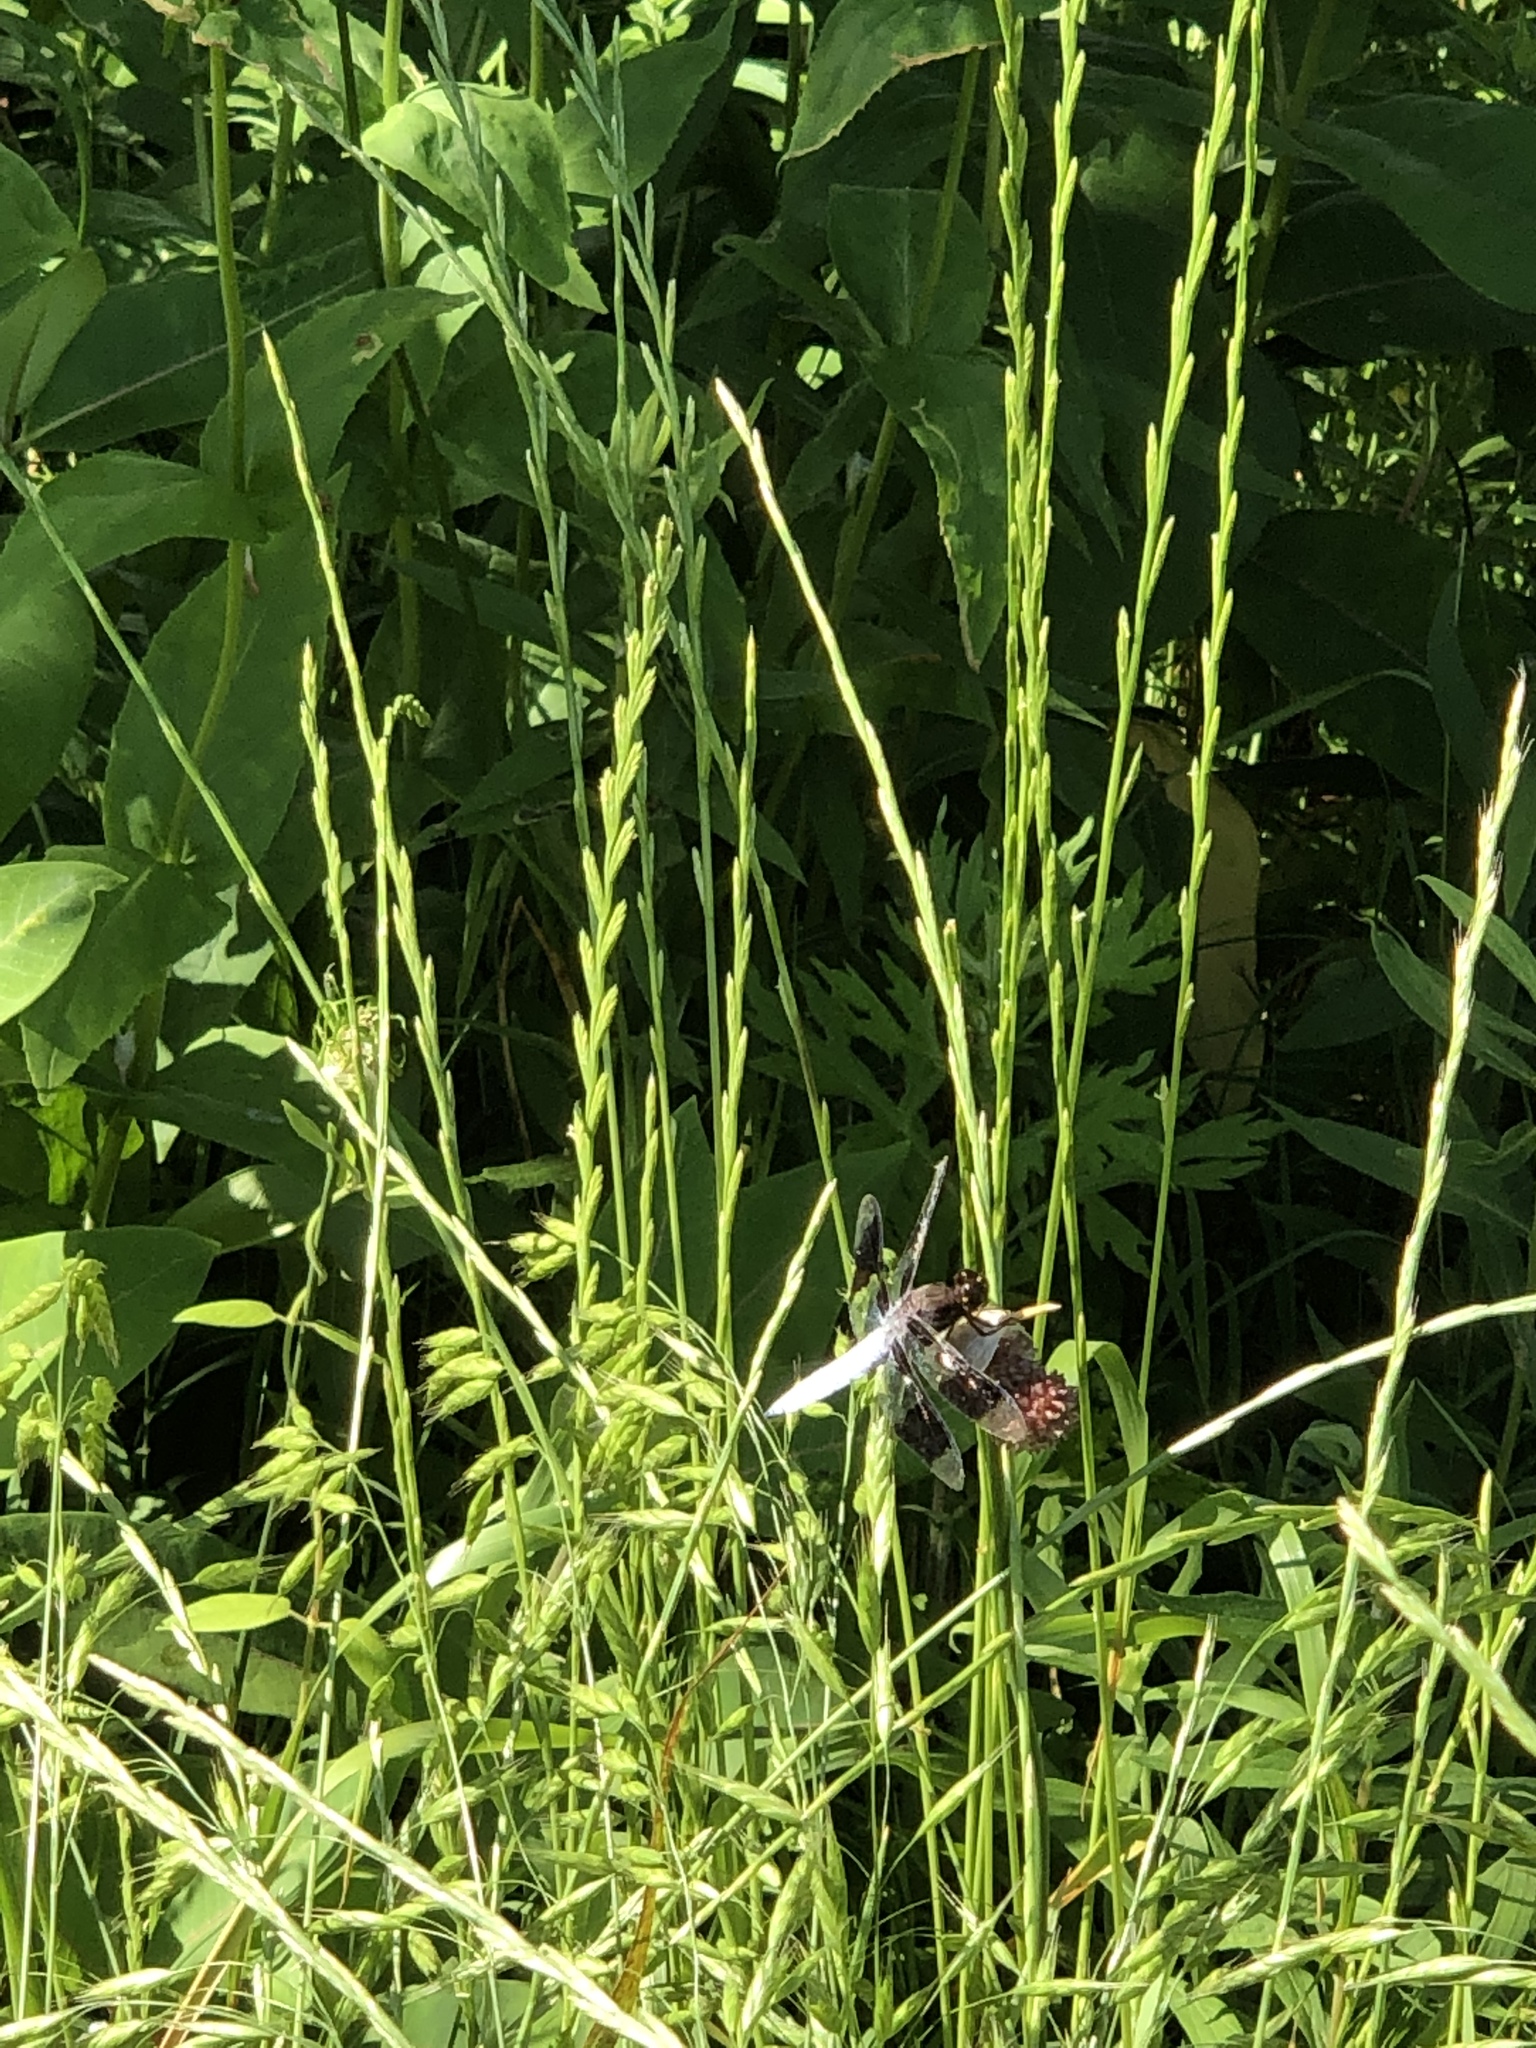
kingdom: Animalia
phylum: Arthropoda
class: Insecta
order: Odonata
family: Libellulidae
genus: Plathemis
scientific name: Plathemis lydia
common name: Common whitetail
